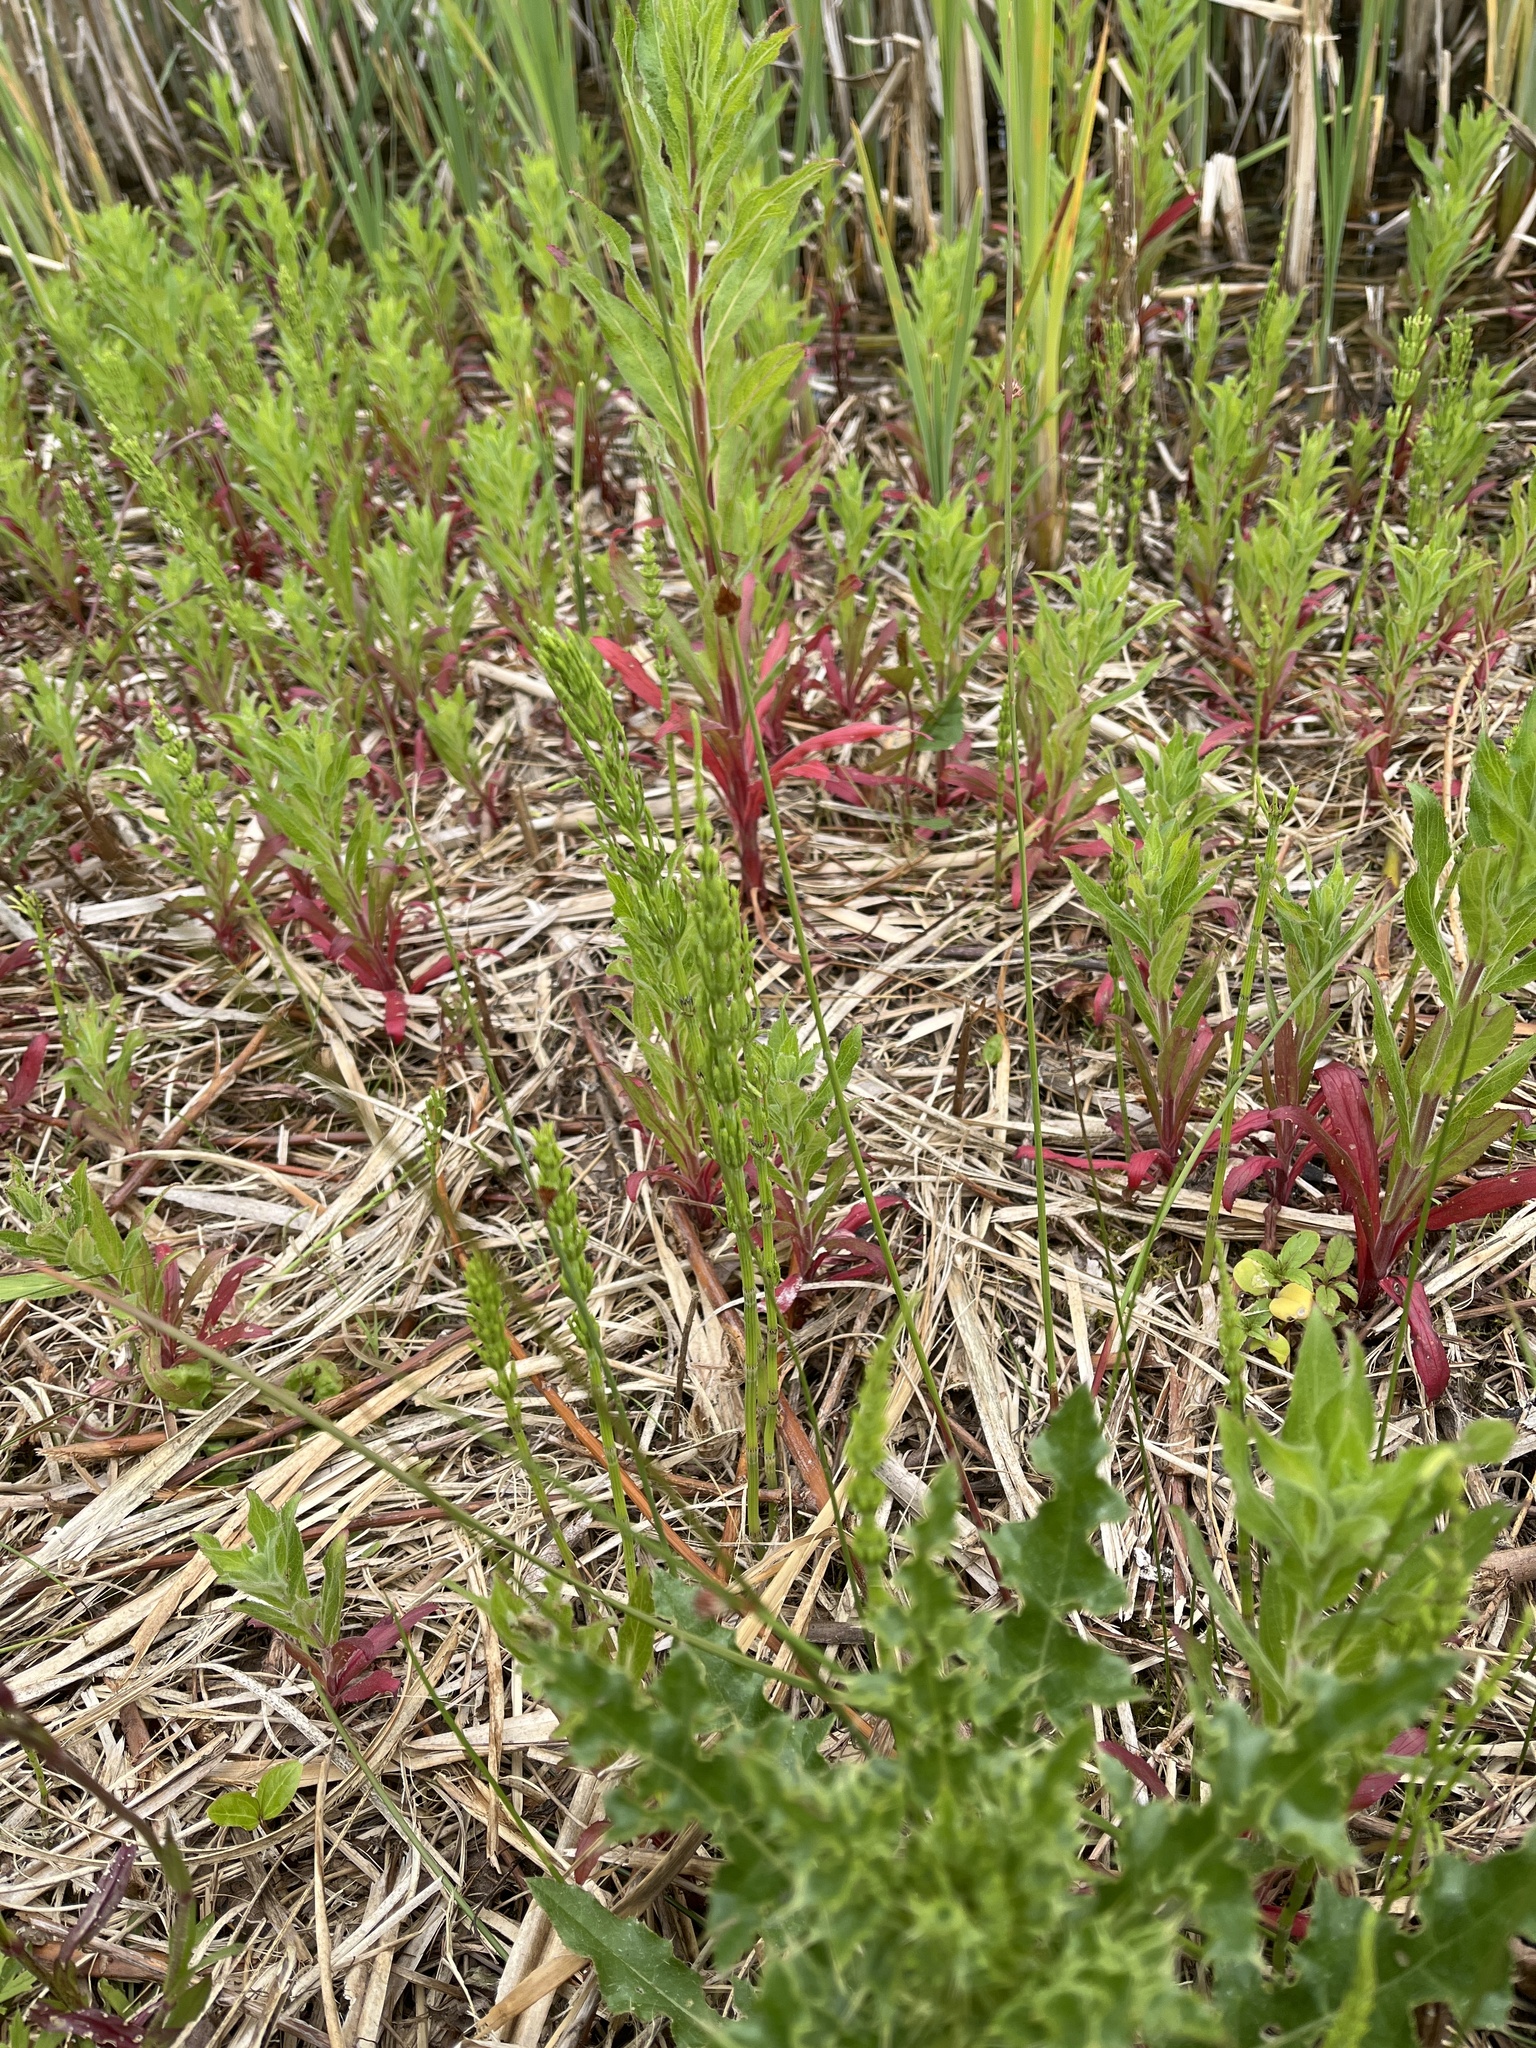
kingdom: Plantae
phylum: Tracheophyta
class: Liliopsida
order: Poales
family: Juncaceae
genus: Juncus
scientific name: Juncus conglomeratus
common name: Compact rush
